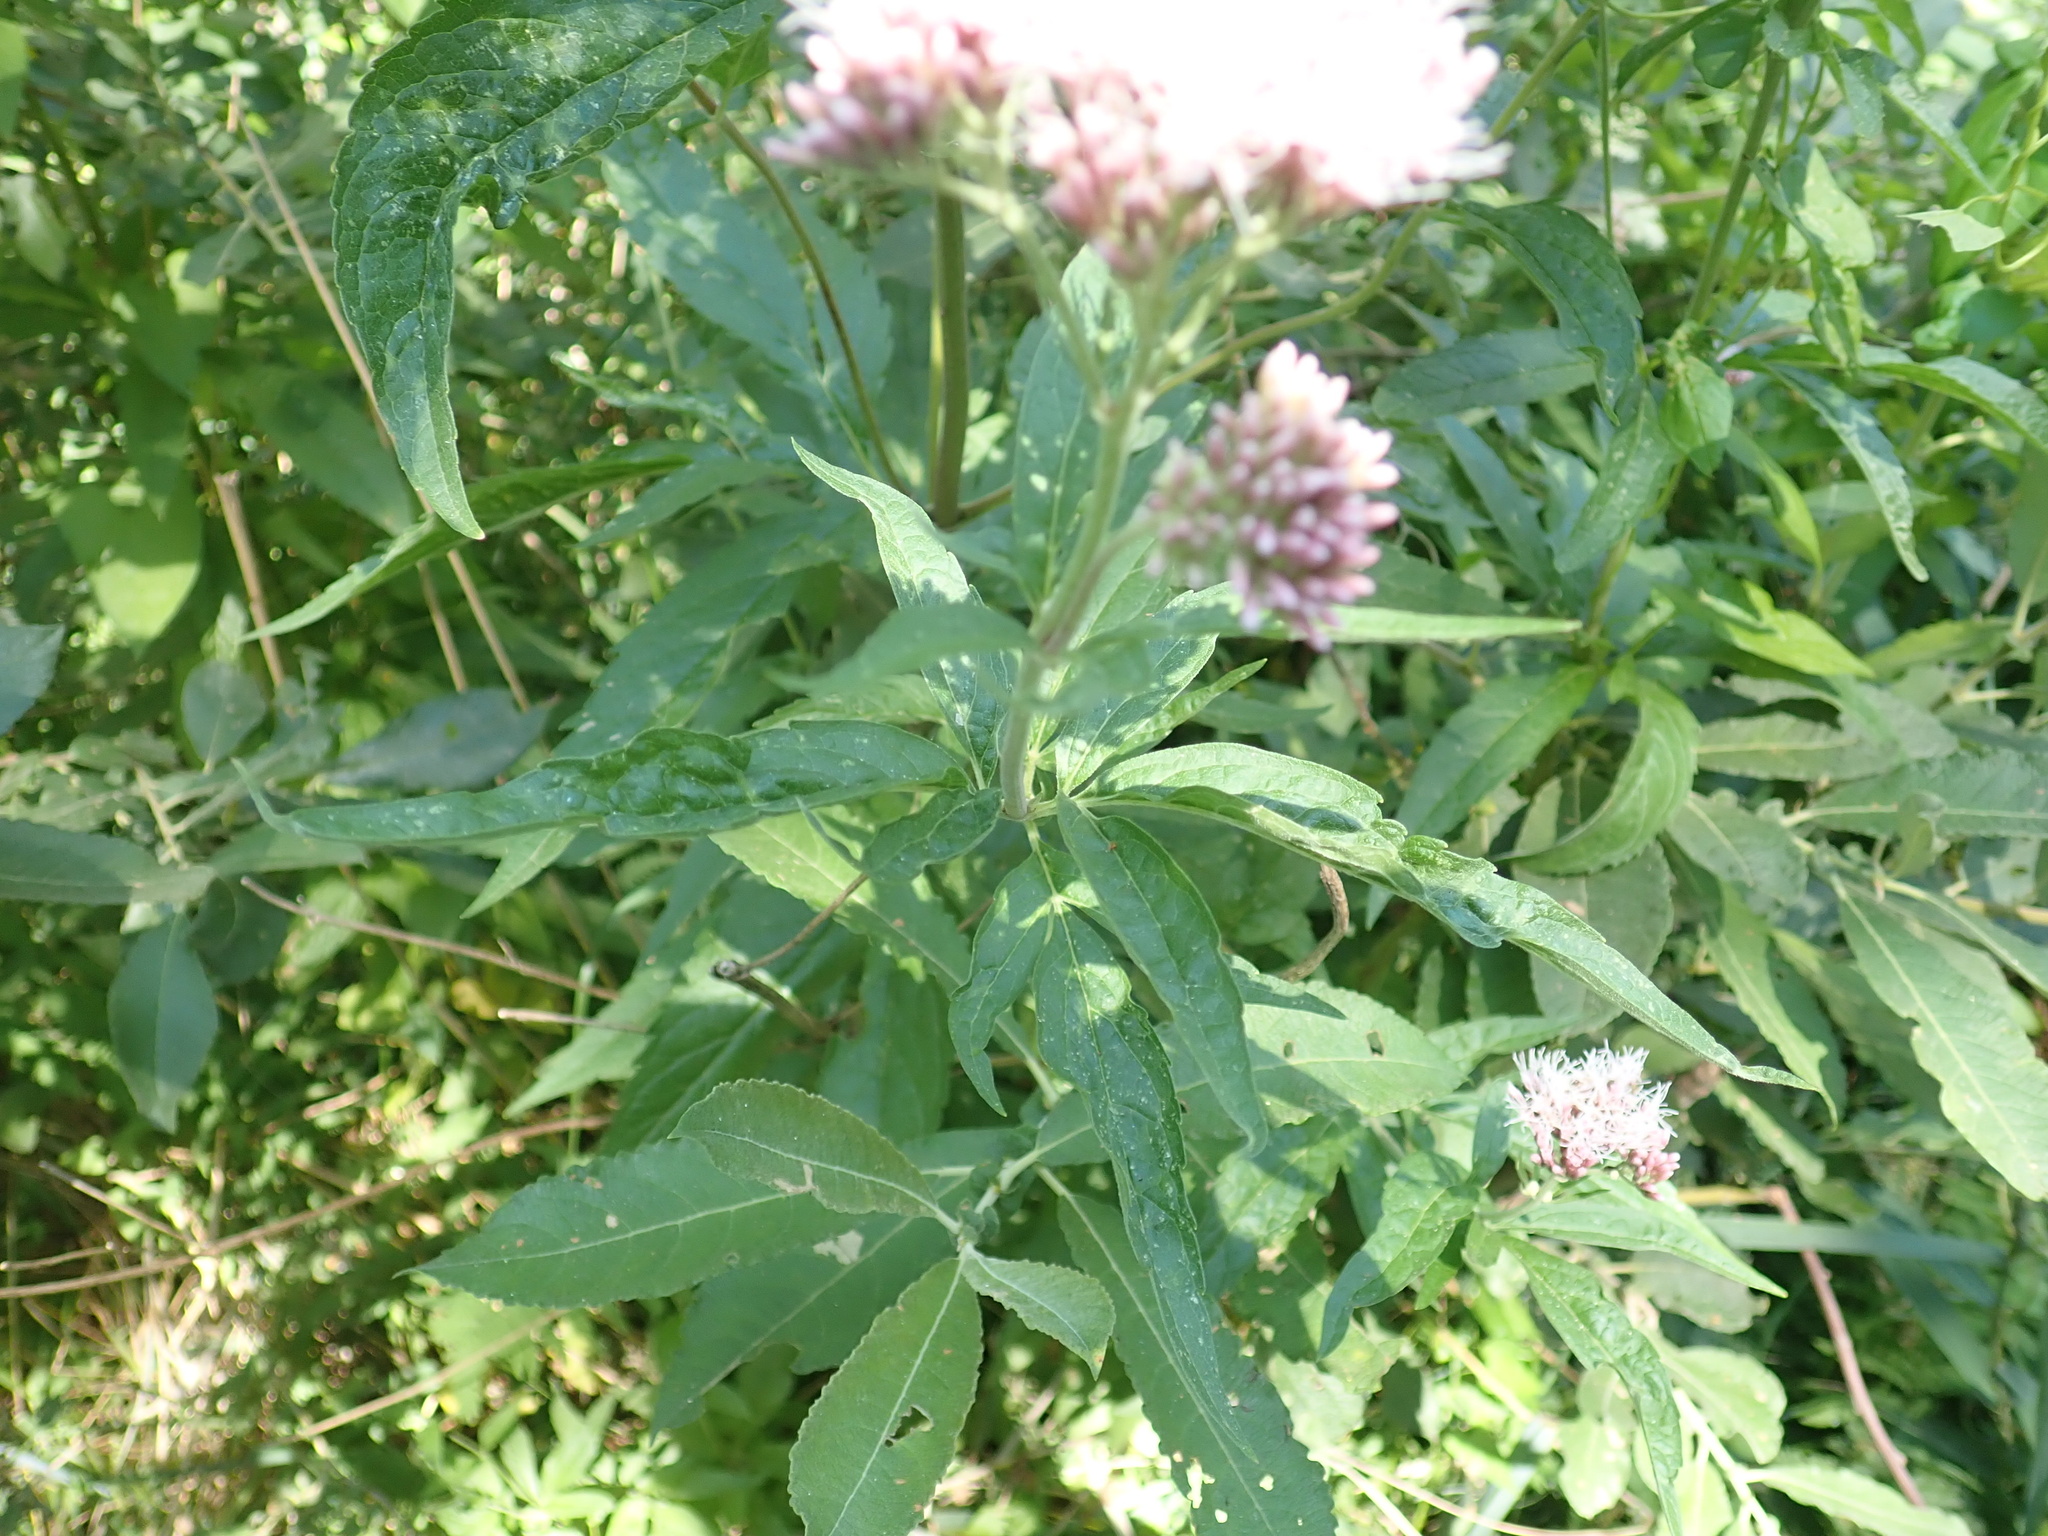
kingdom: Plantae
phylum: Tracheophyta
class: Magnoliopsida
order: Asterales
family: Asteraceae
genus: Eupatorium
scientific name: Eupatorium cannabinum
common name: Hemp-agrimony
